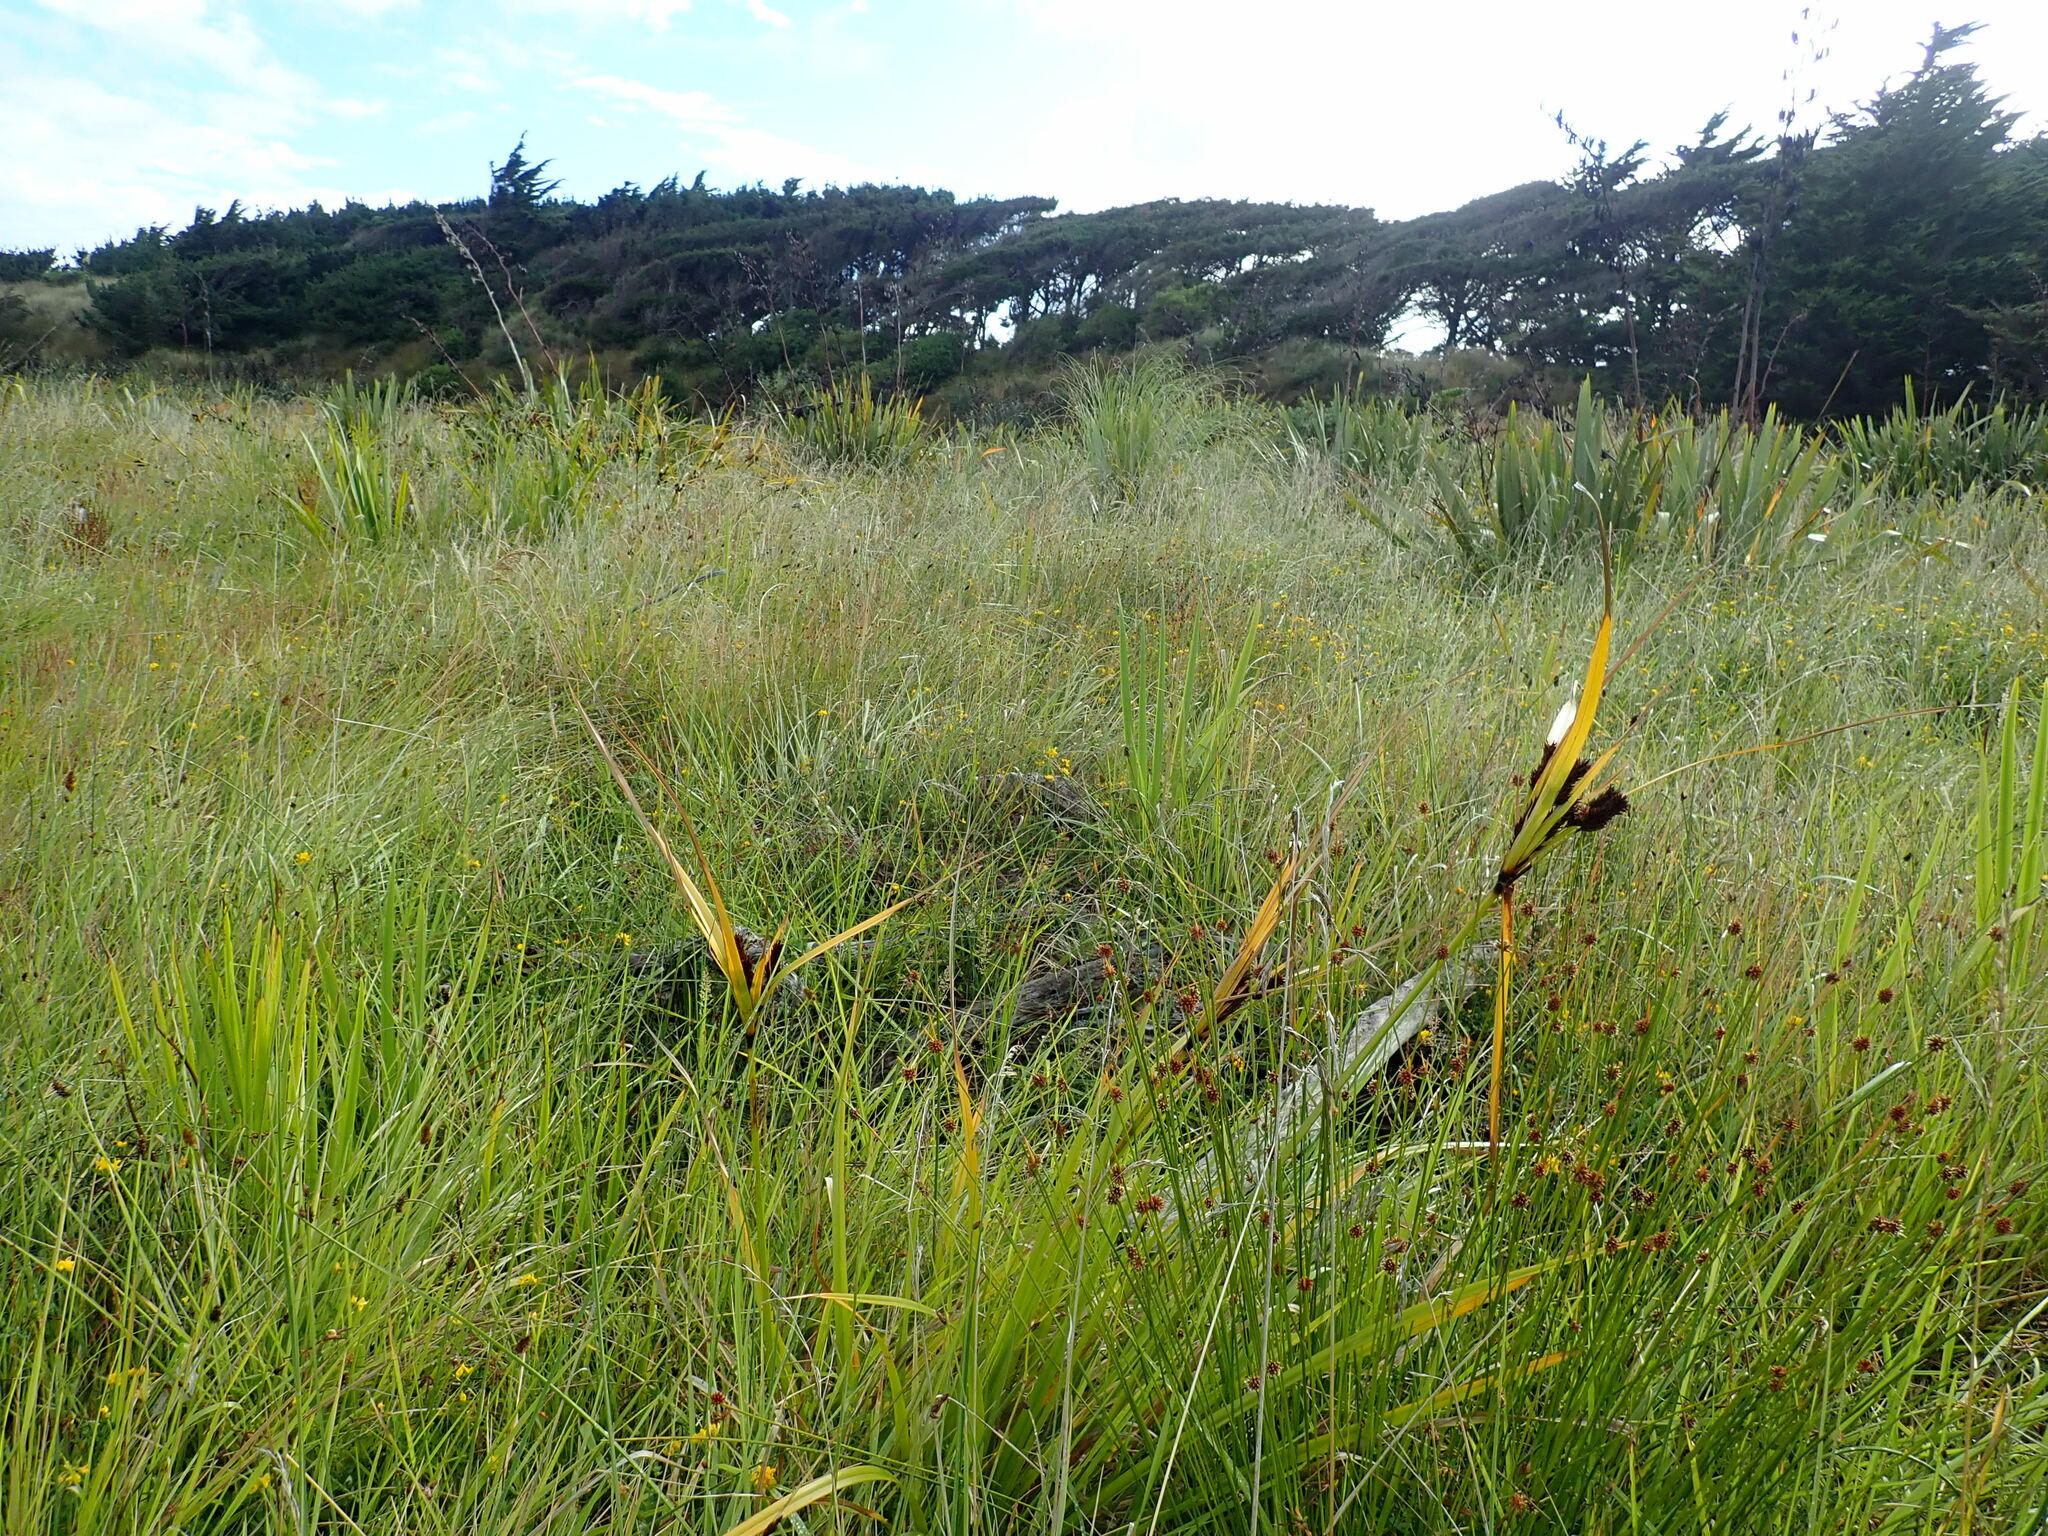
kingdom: Plantae
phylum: Tracheophyta
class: Liliopsida
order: Poales
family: Cyperaceae
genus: Cyperus
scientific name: Cyperus ustulatus
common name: Giant umbrella-sedge
